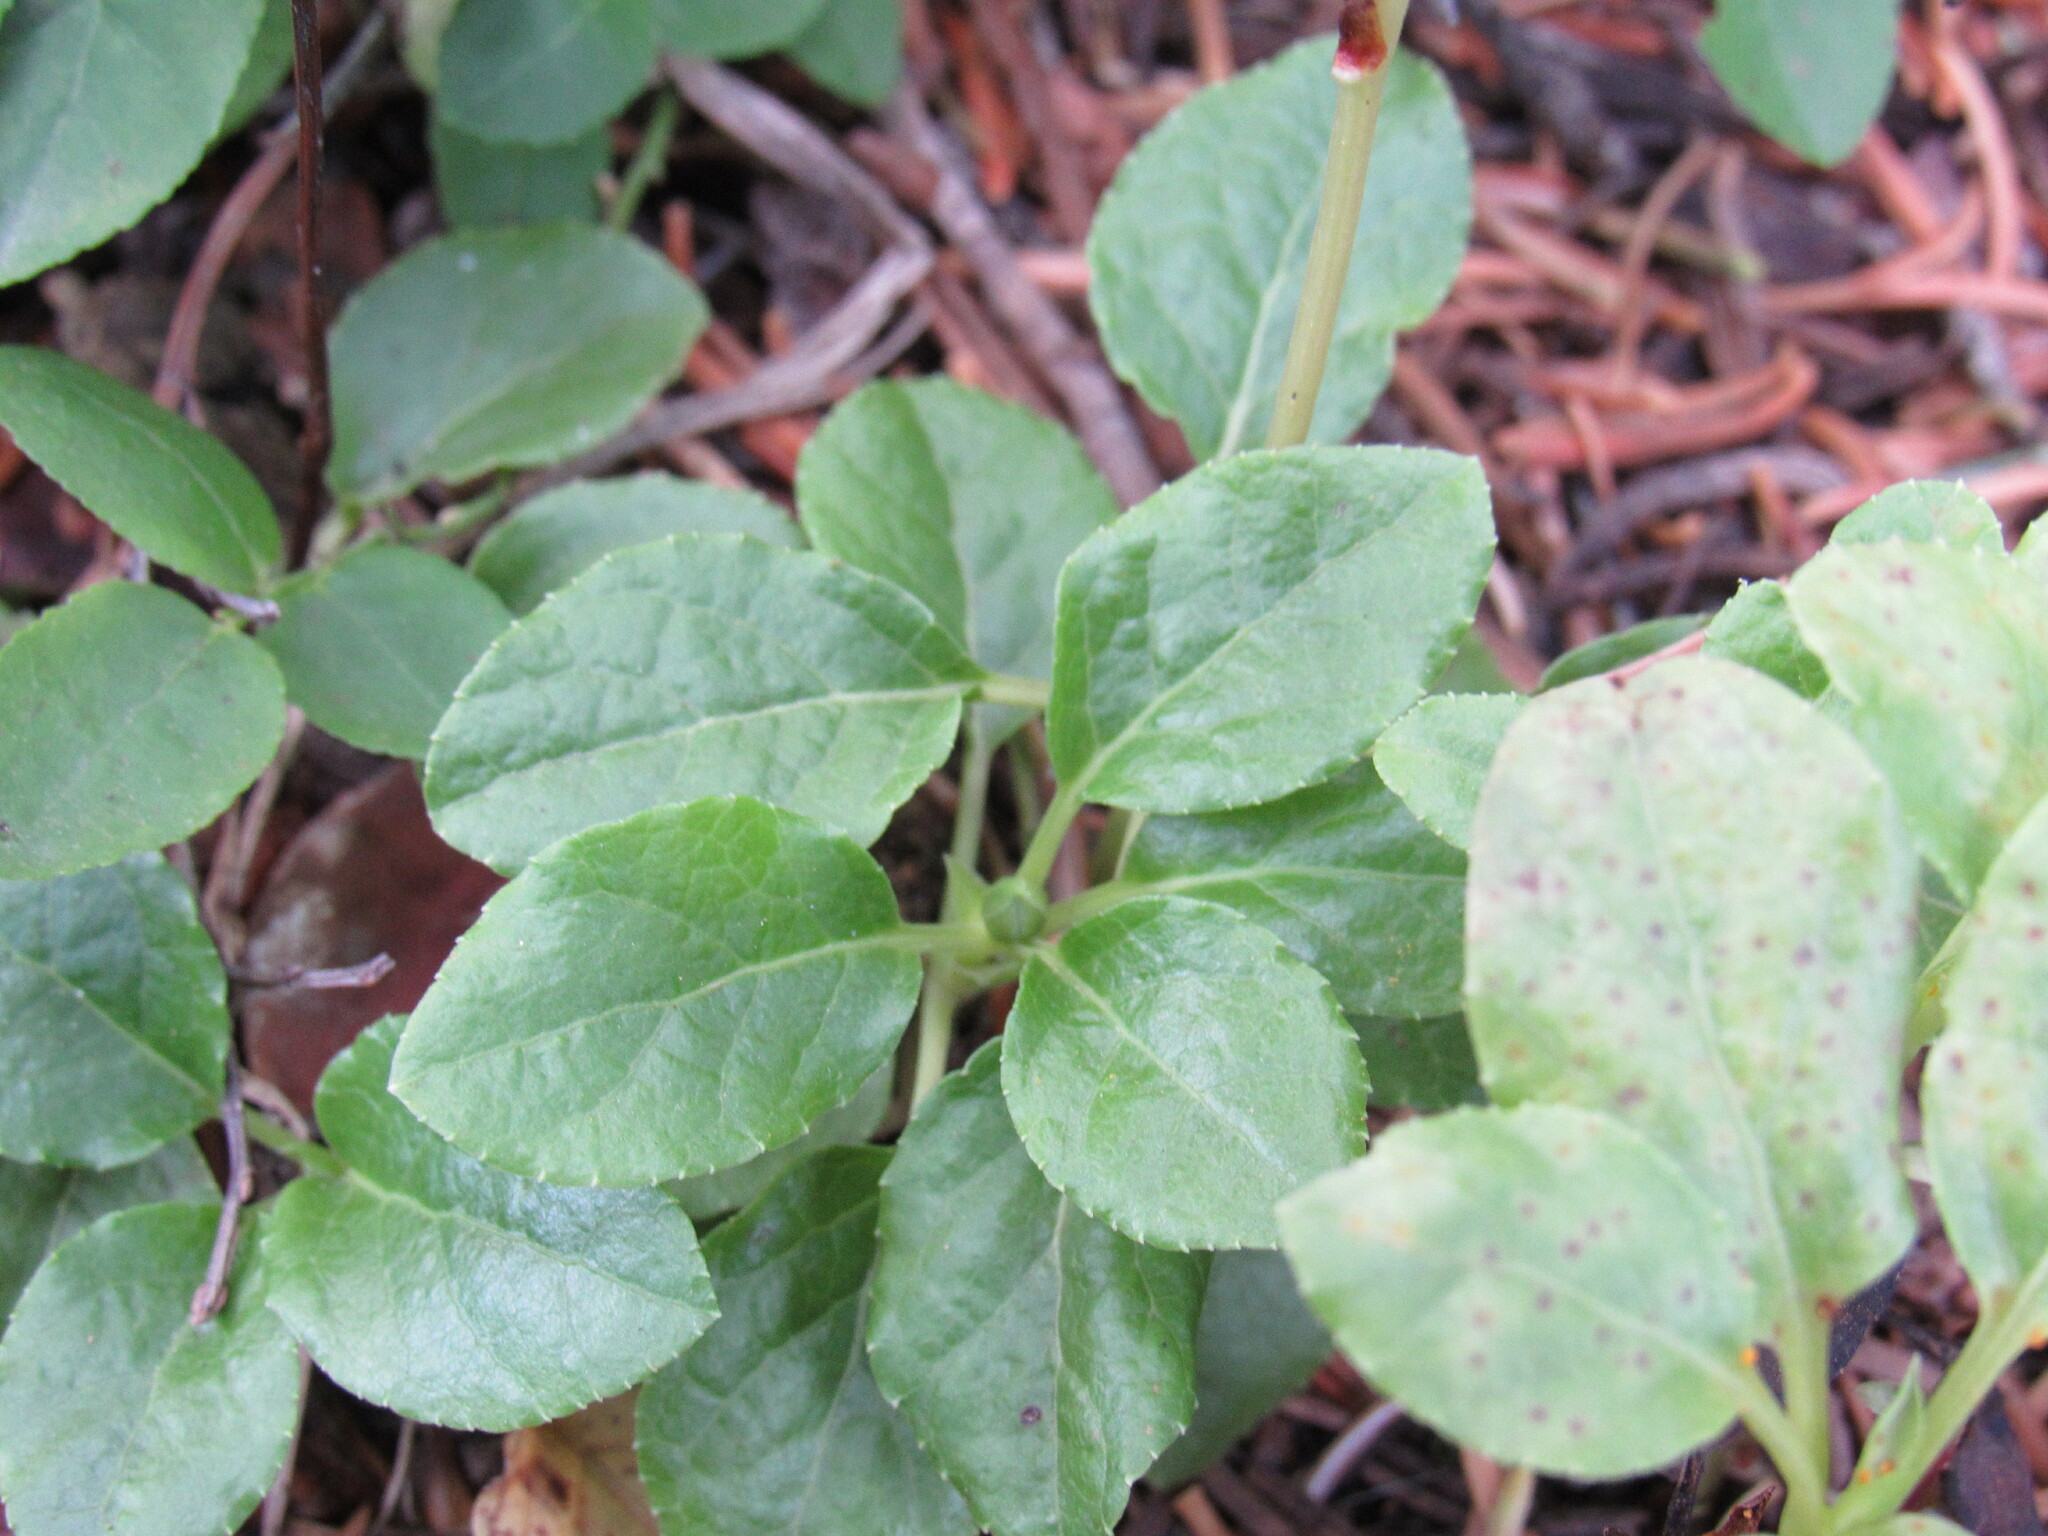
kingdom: Plantae
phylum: Tracheophyta
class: Magnoliopsida
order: Ericales
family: Ericaceae
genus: Orthilia
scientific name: Orthilia secunda
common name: One-sided orthilia
